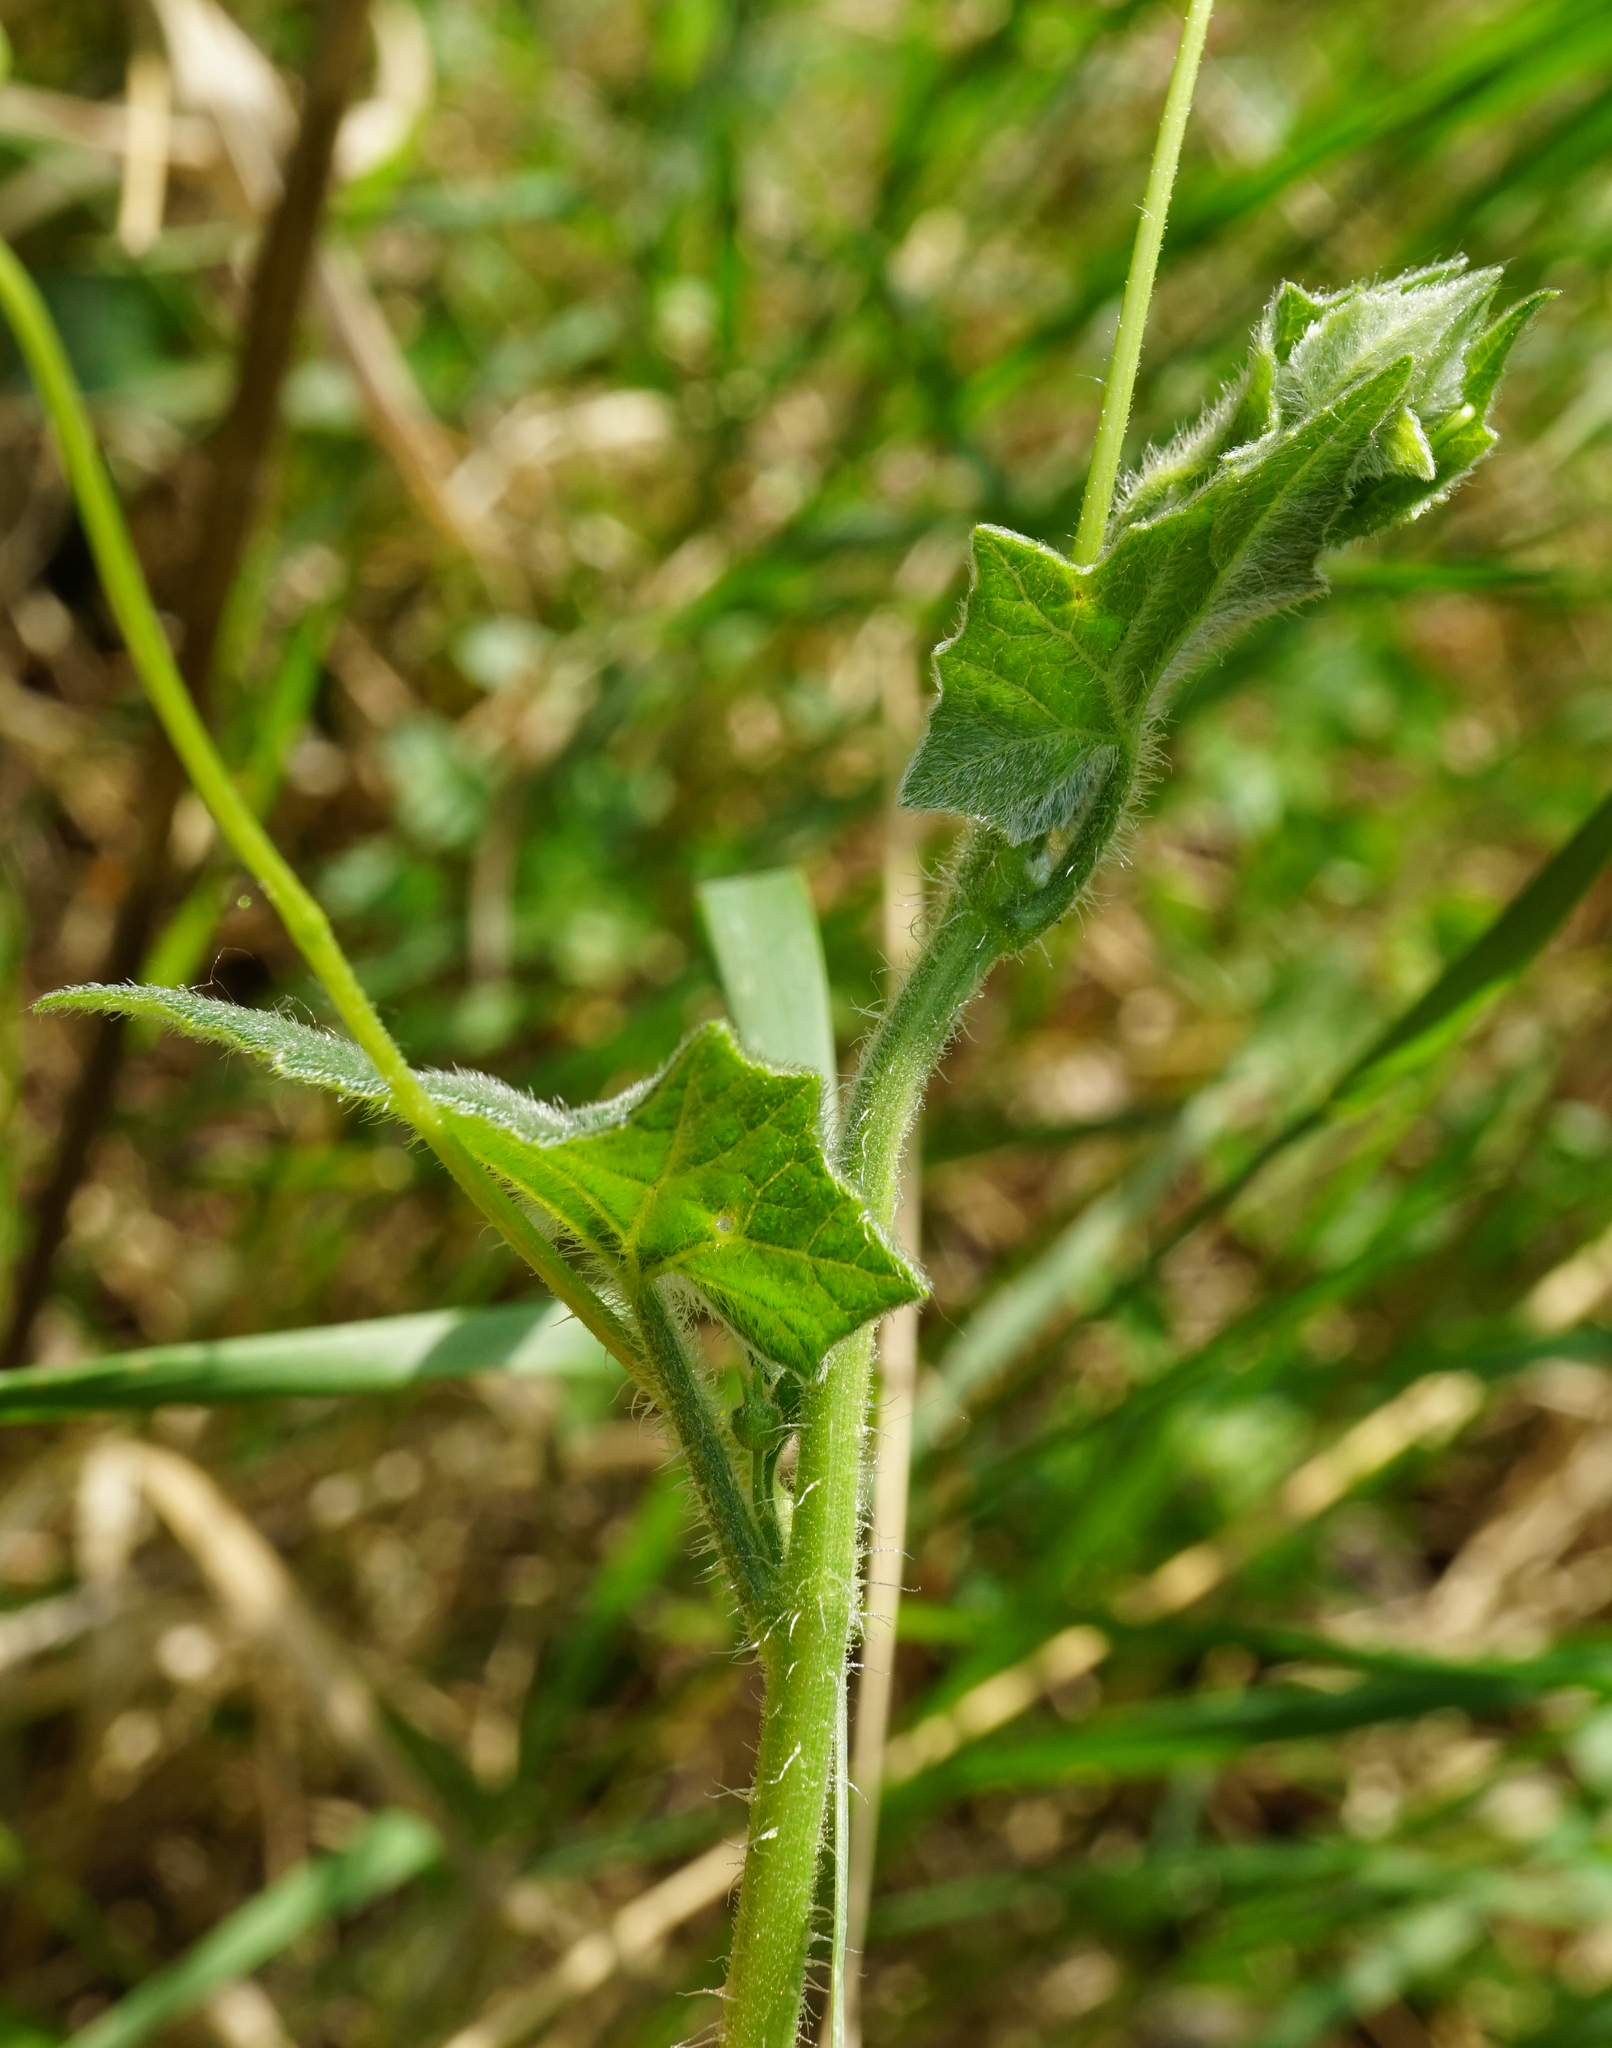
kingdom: Plantae
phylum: Tracheophyta
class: Magnoliopsida
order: Cucurbitales
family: Cucurbitaceae
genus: Bryonia
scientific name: Bryonia dioica
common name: White bryony
